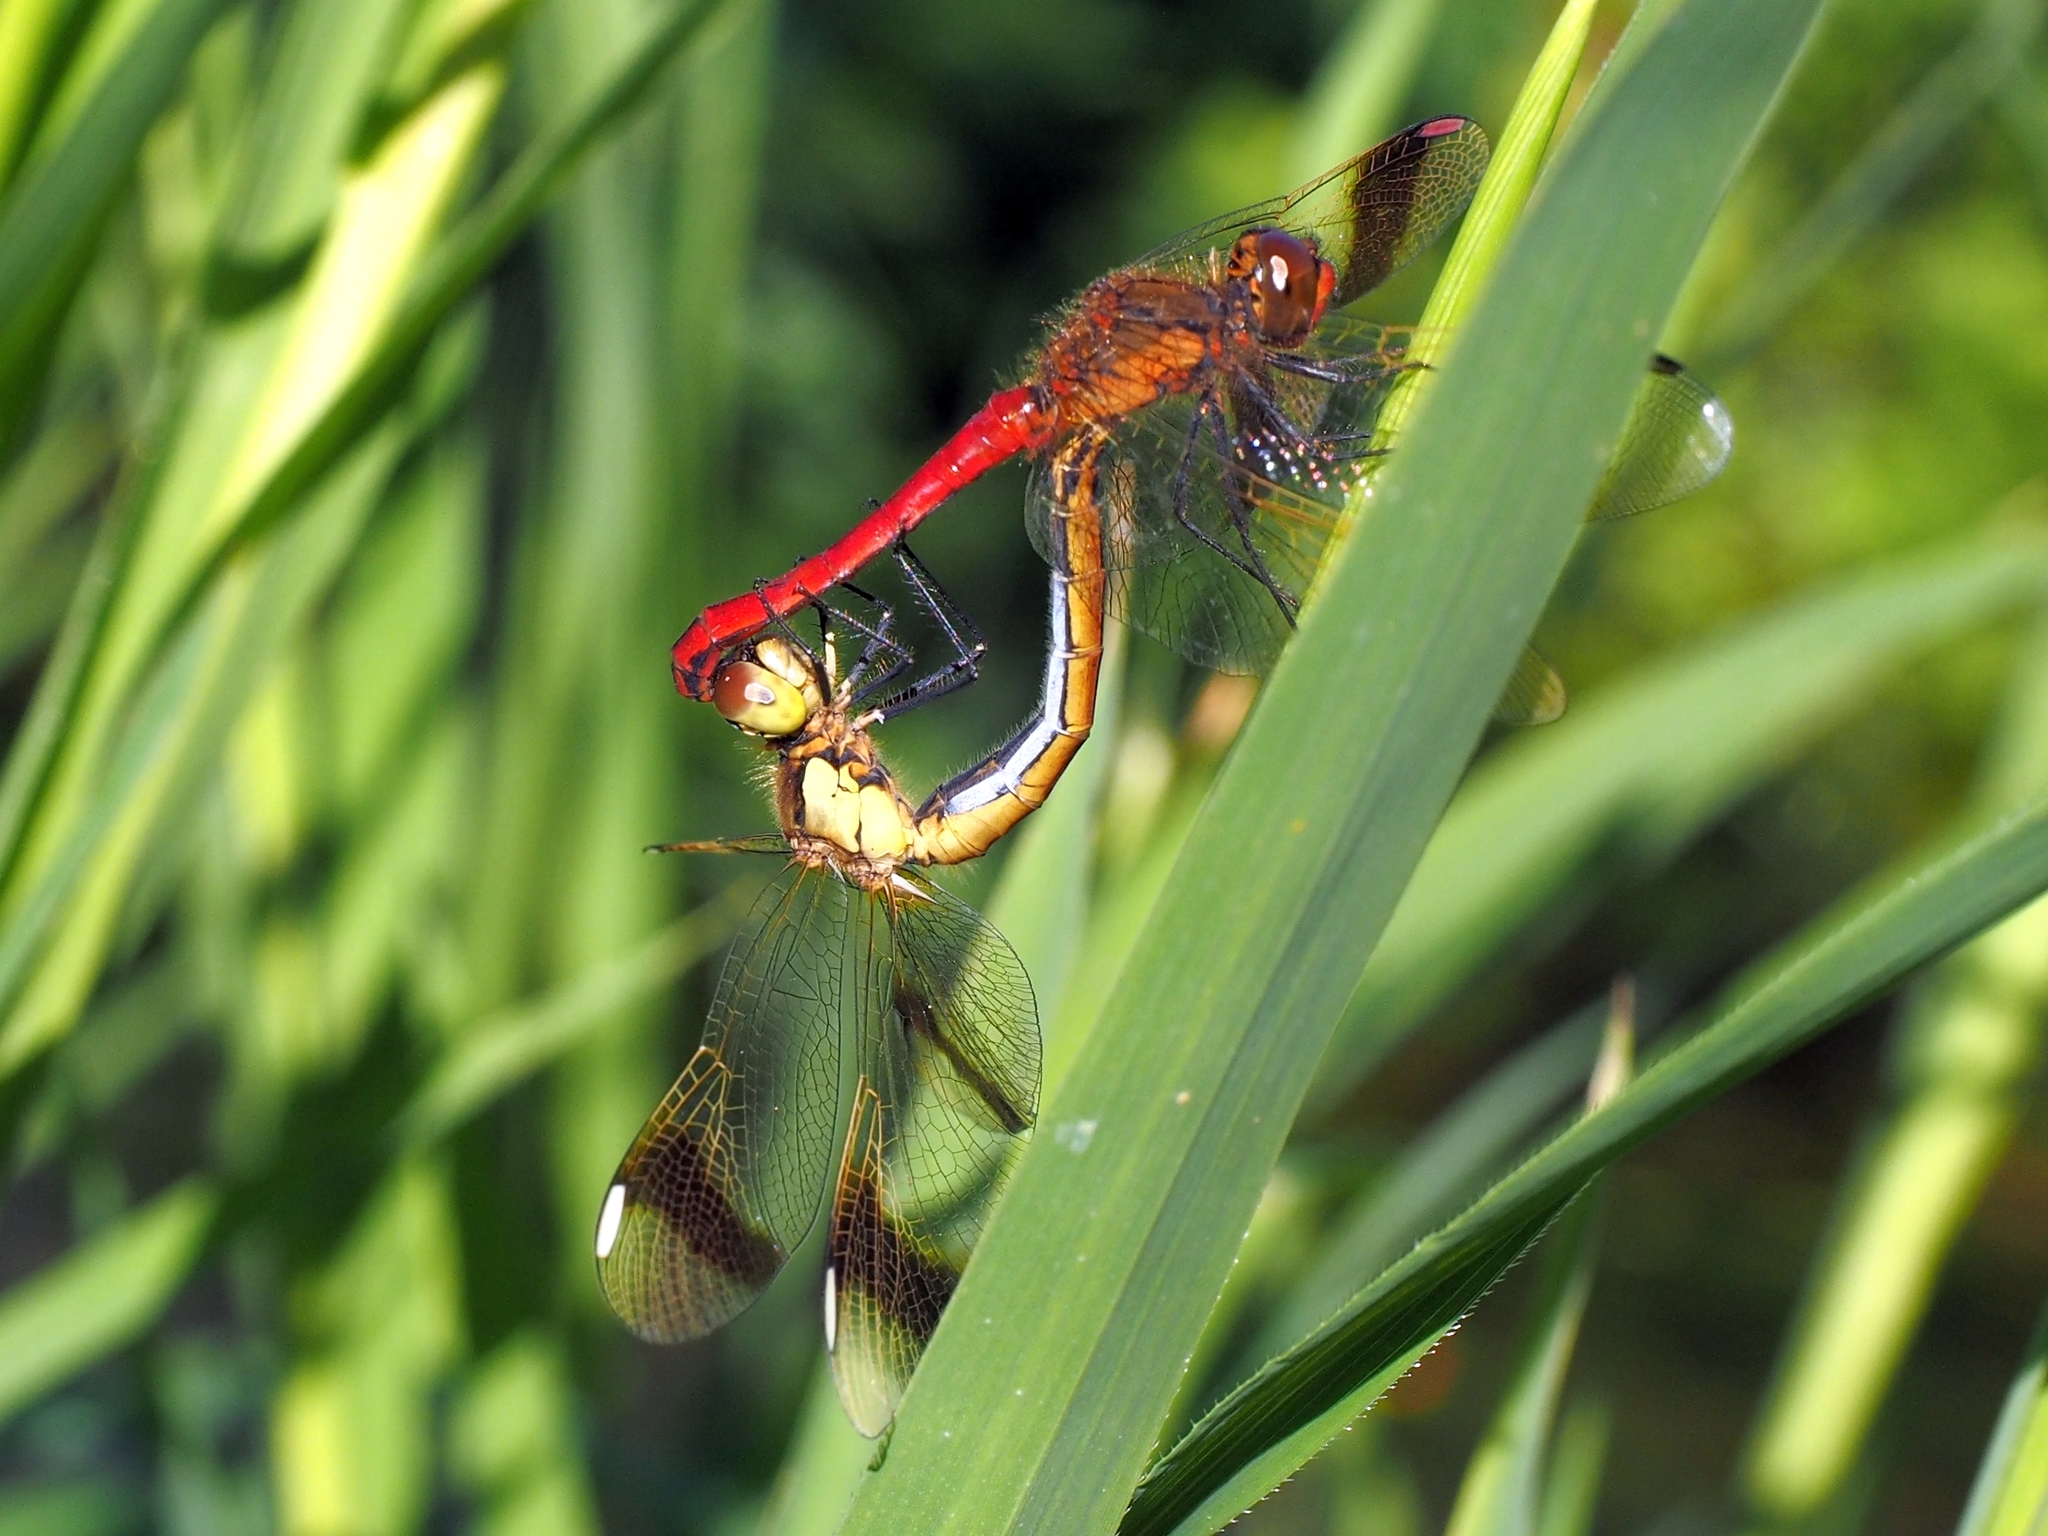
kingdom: Animalia
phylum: Arthropoda
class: Insecta
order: Odonata
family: Libellulidae
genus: Sympetrum
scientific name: Sympetrum pedemontanum
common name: Banded darter
